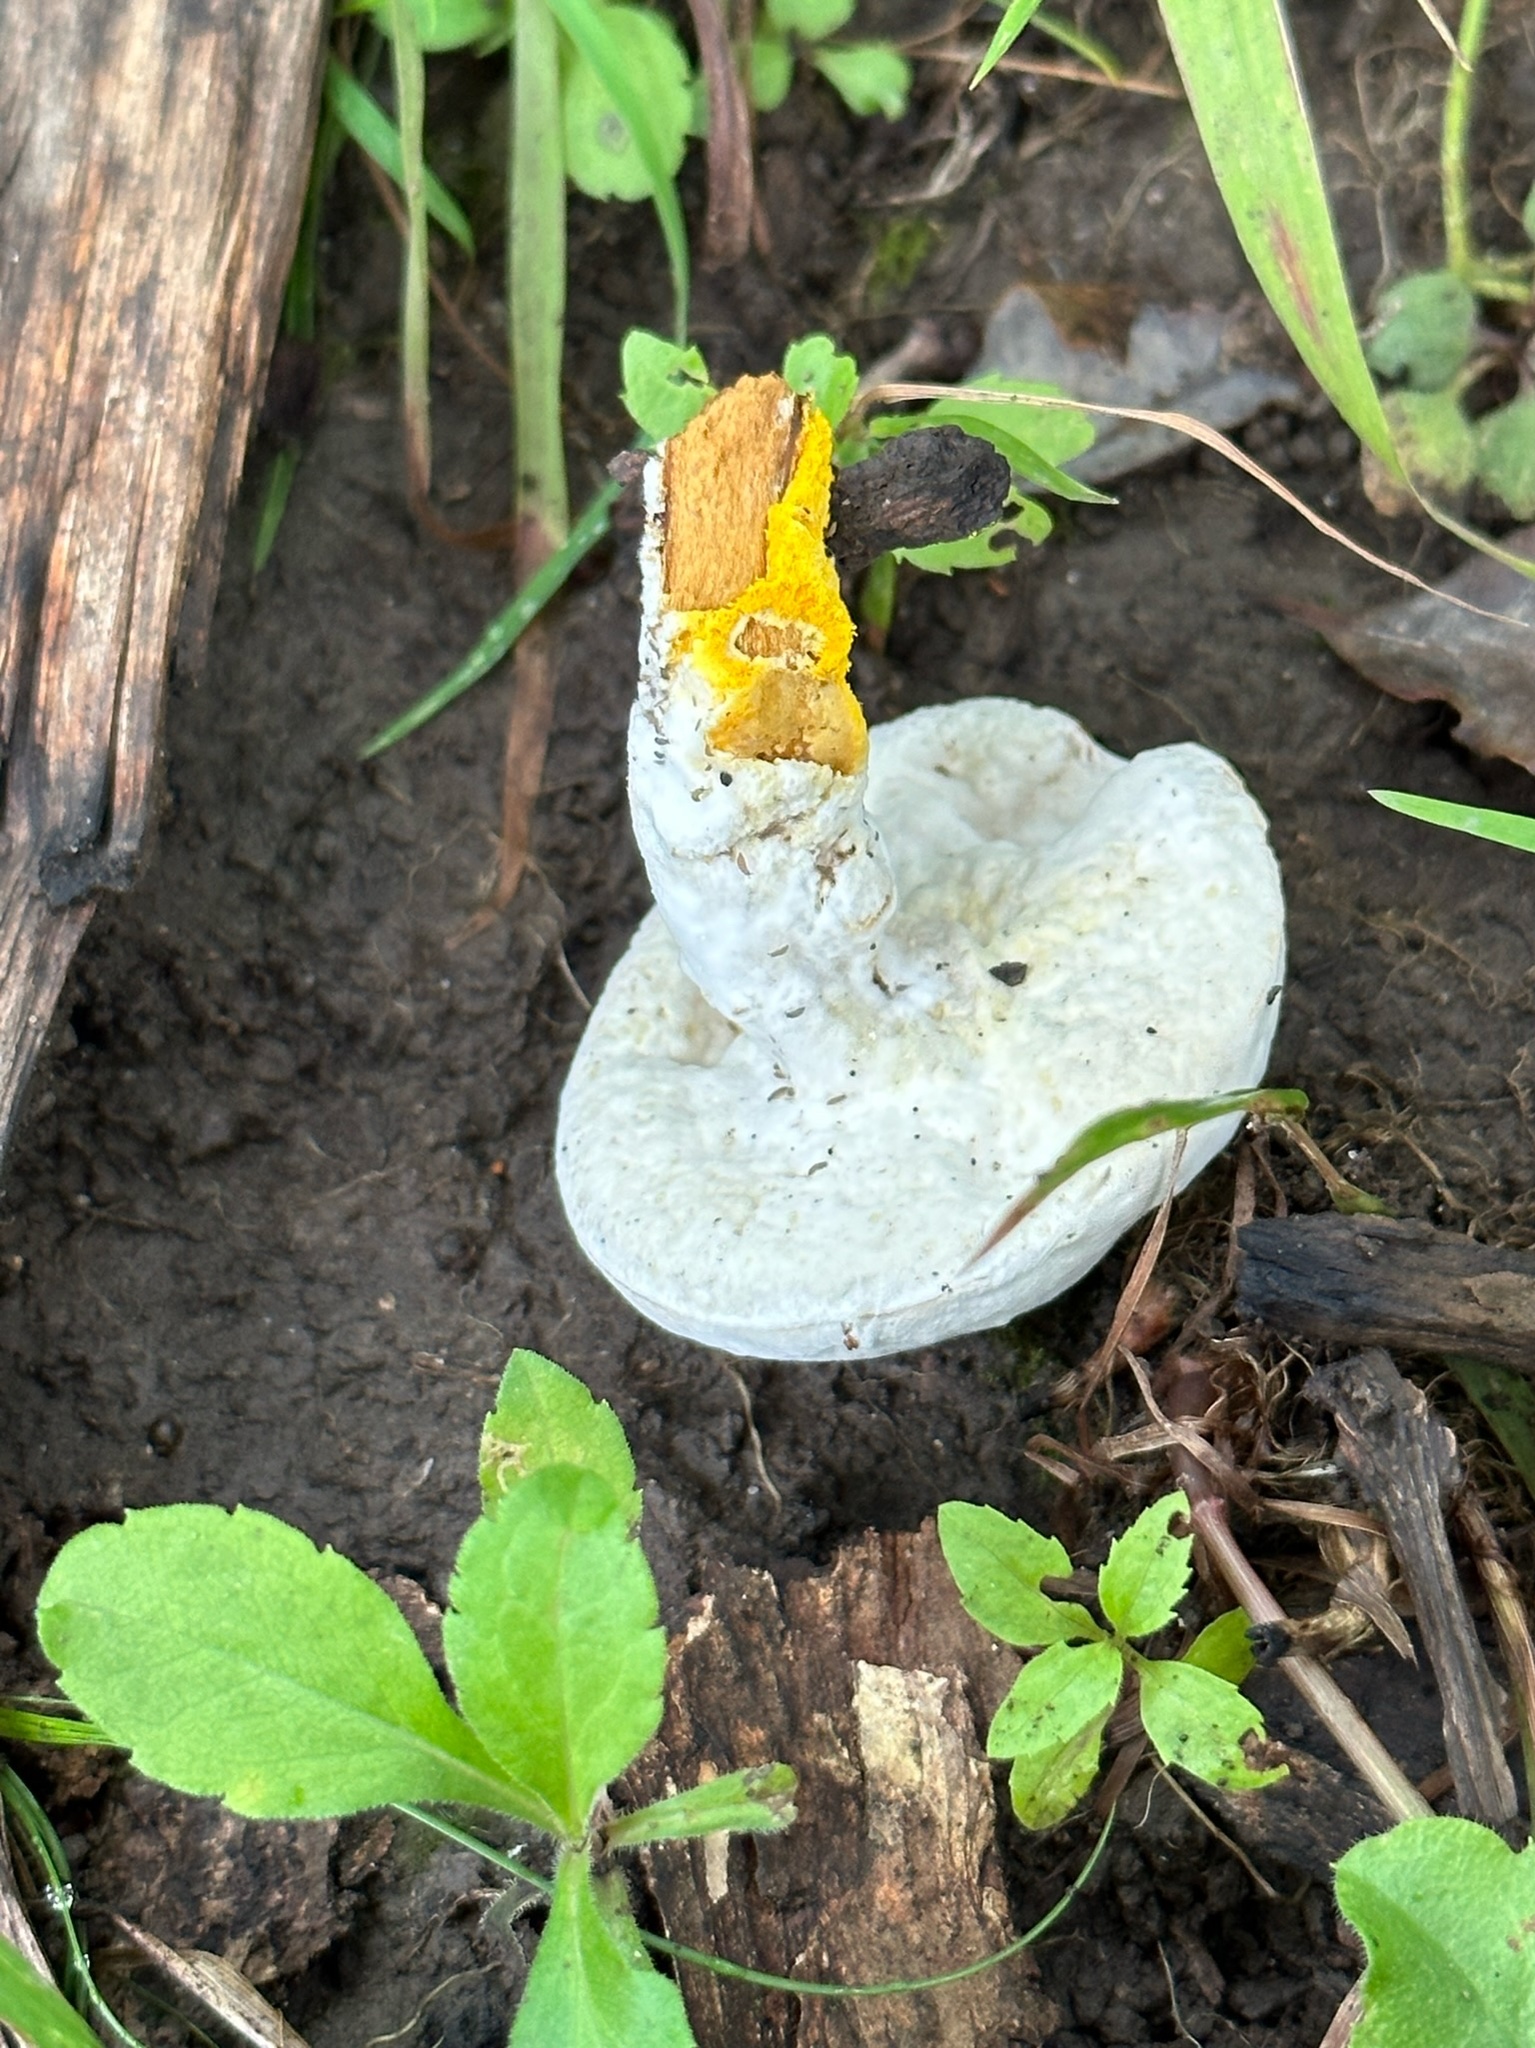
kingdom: Fungi
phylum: Ascomycota
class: Sordariomycetes
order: Hypocreales
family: Hypocreaceae
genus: Hypomyces
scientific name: Hypomyces chrysospermus
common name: Bolete mould
